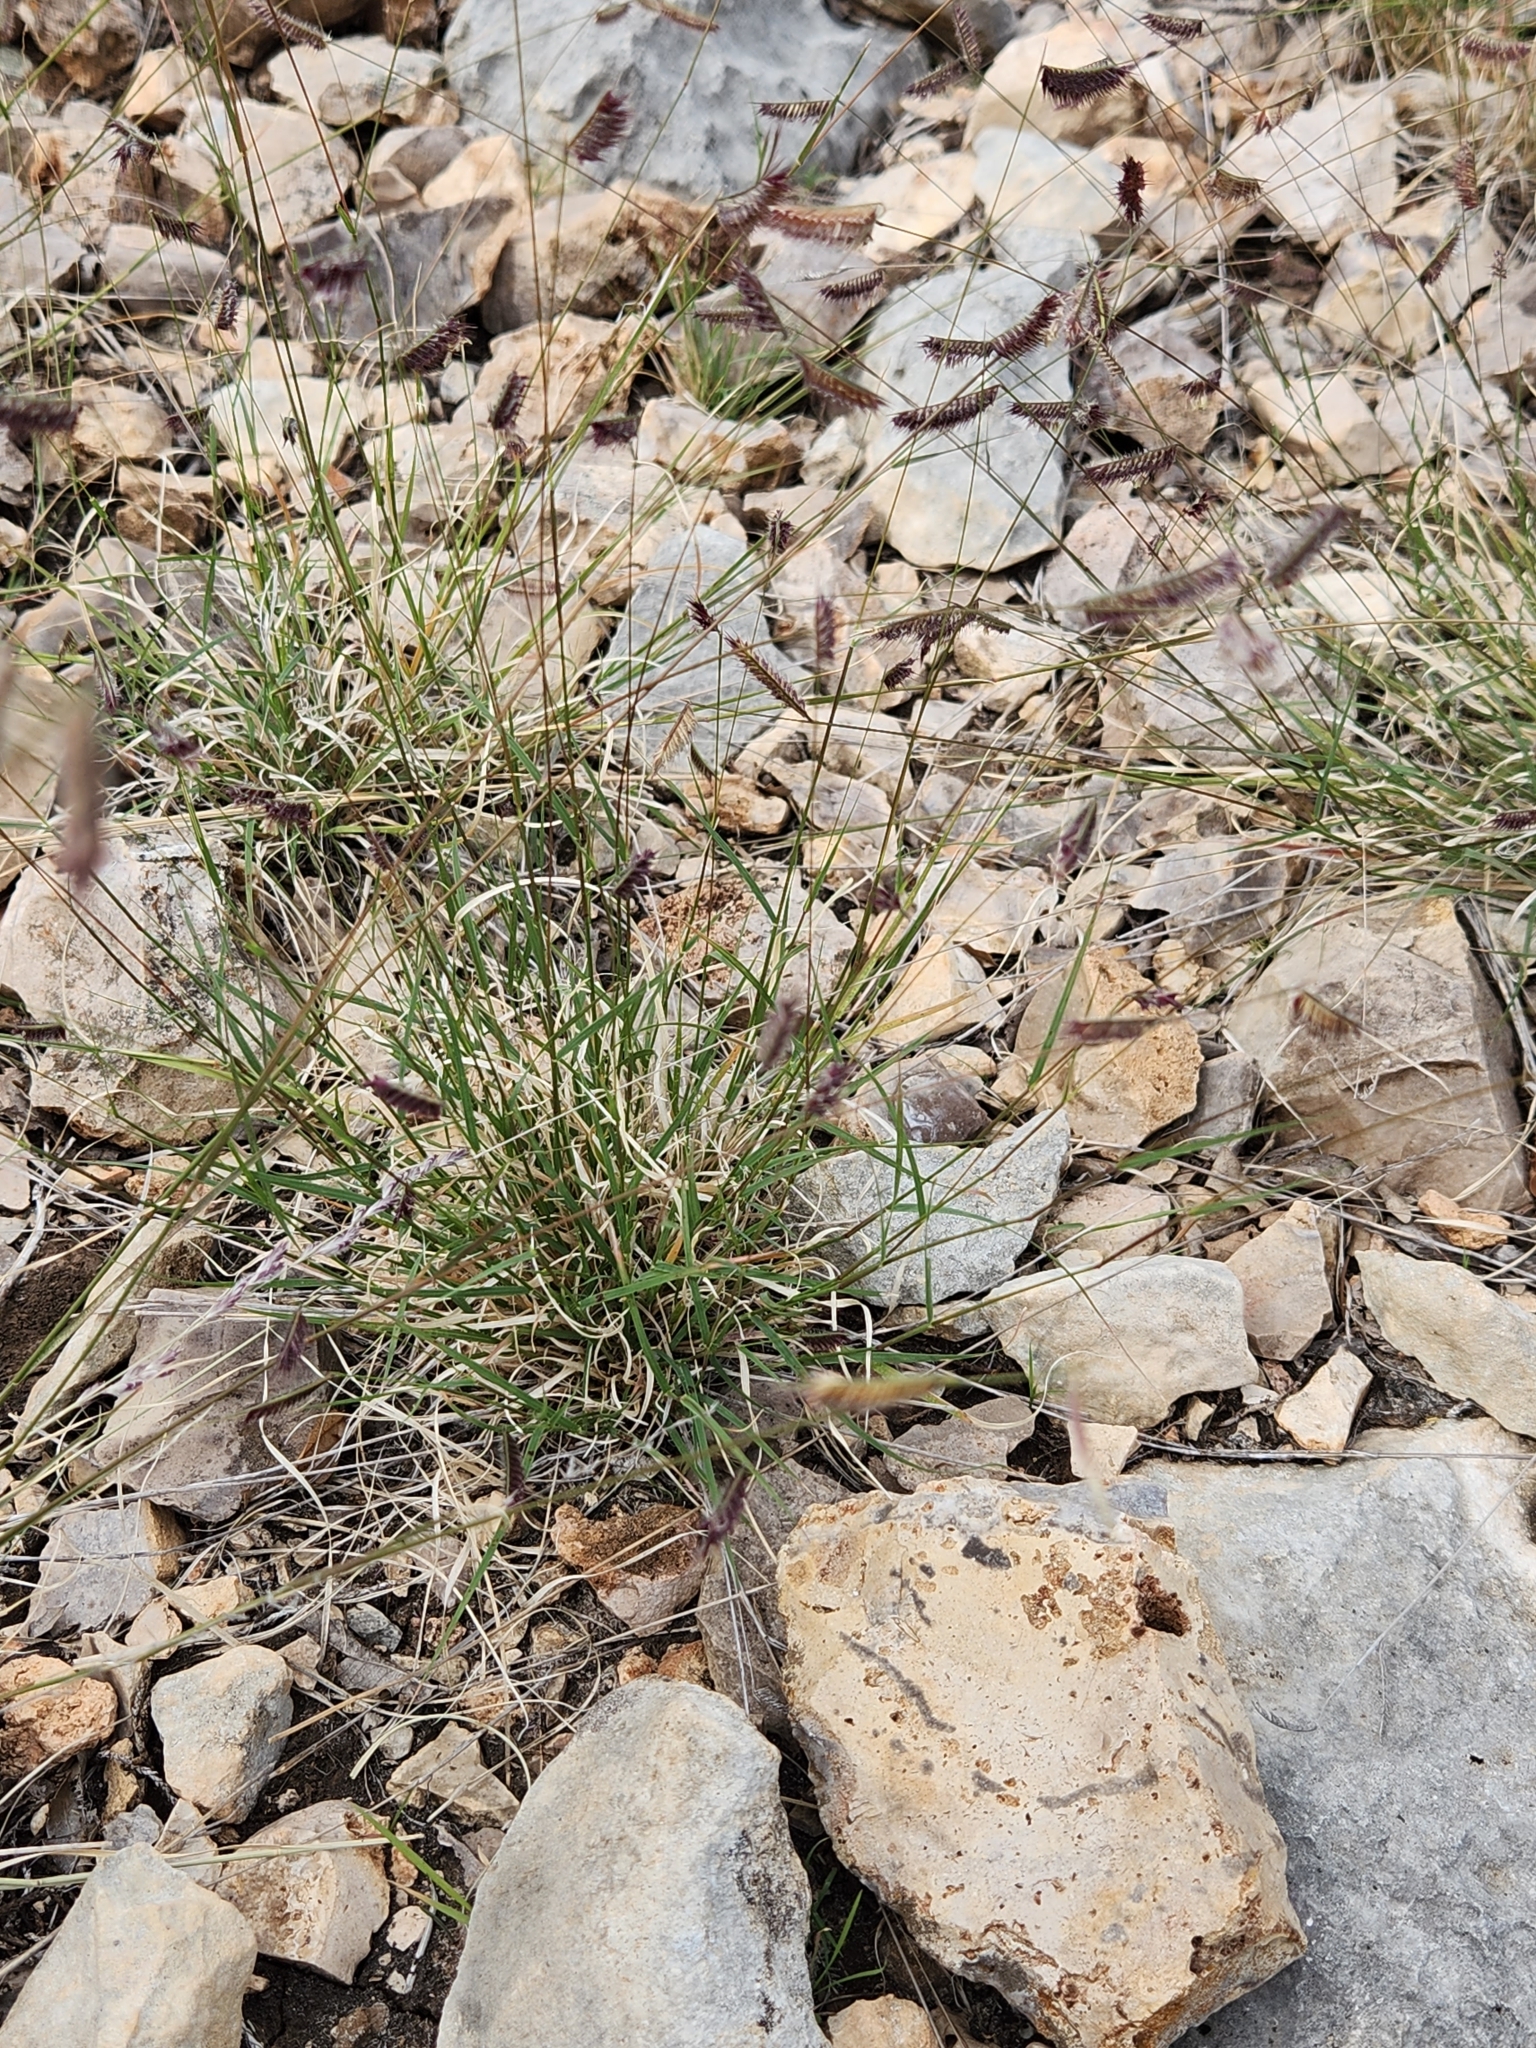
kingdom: Plantae
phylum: Tracheophyta
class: Liliopsida
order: Poales
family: Poaceae
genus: Bouteloua
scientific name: Bouteloua hirsuta
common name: Hairy grama
